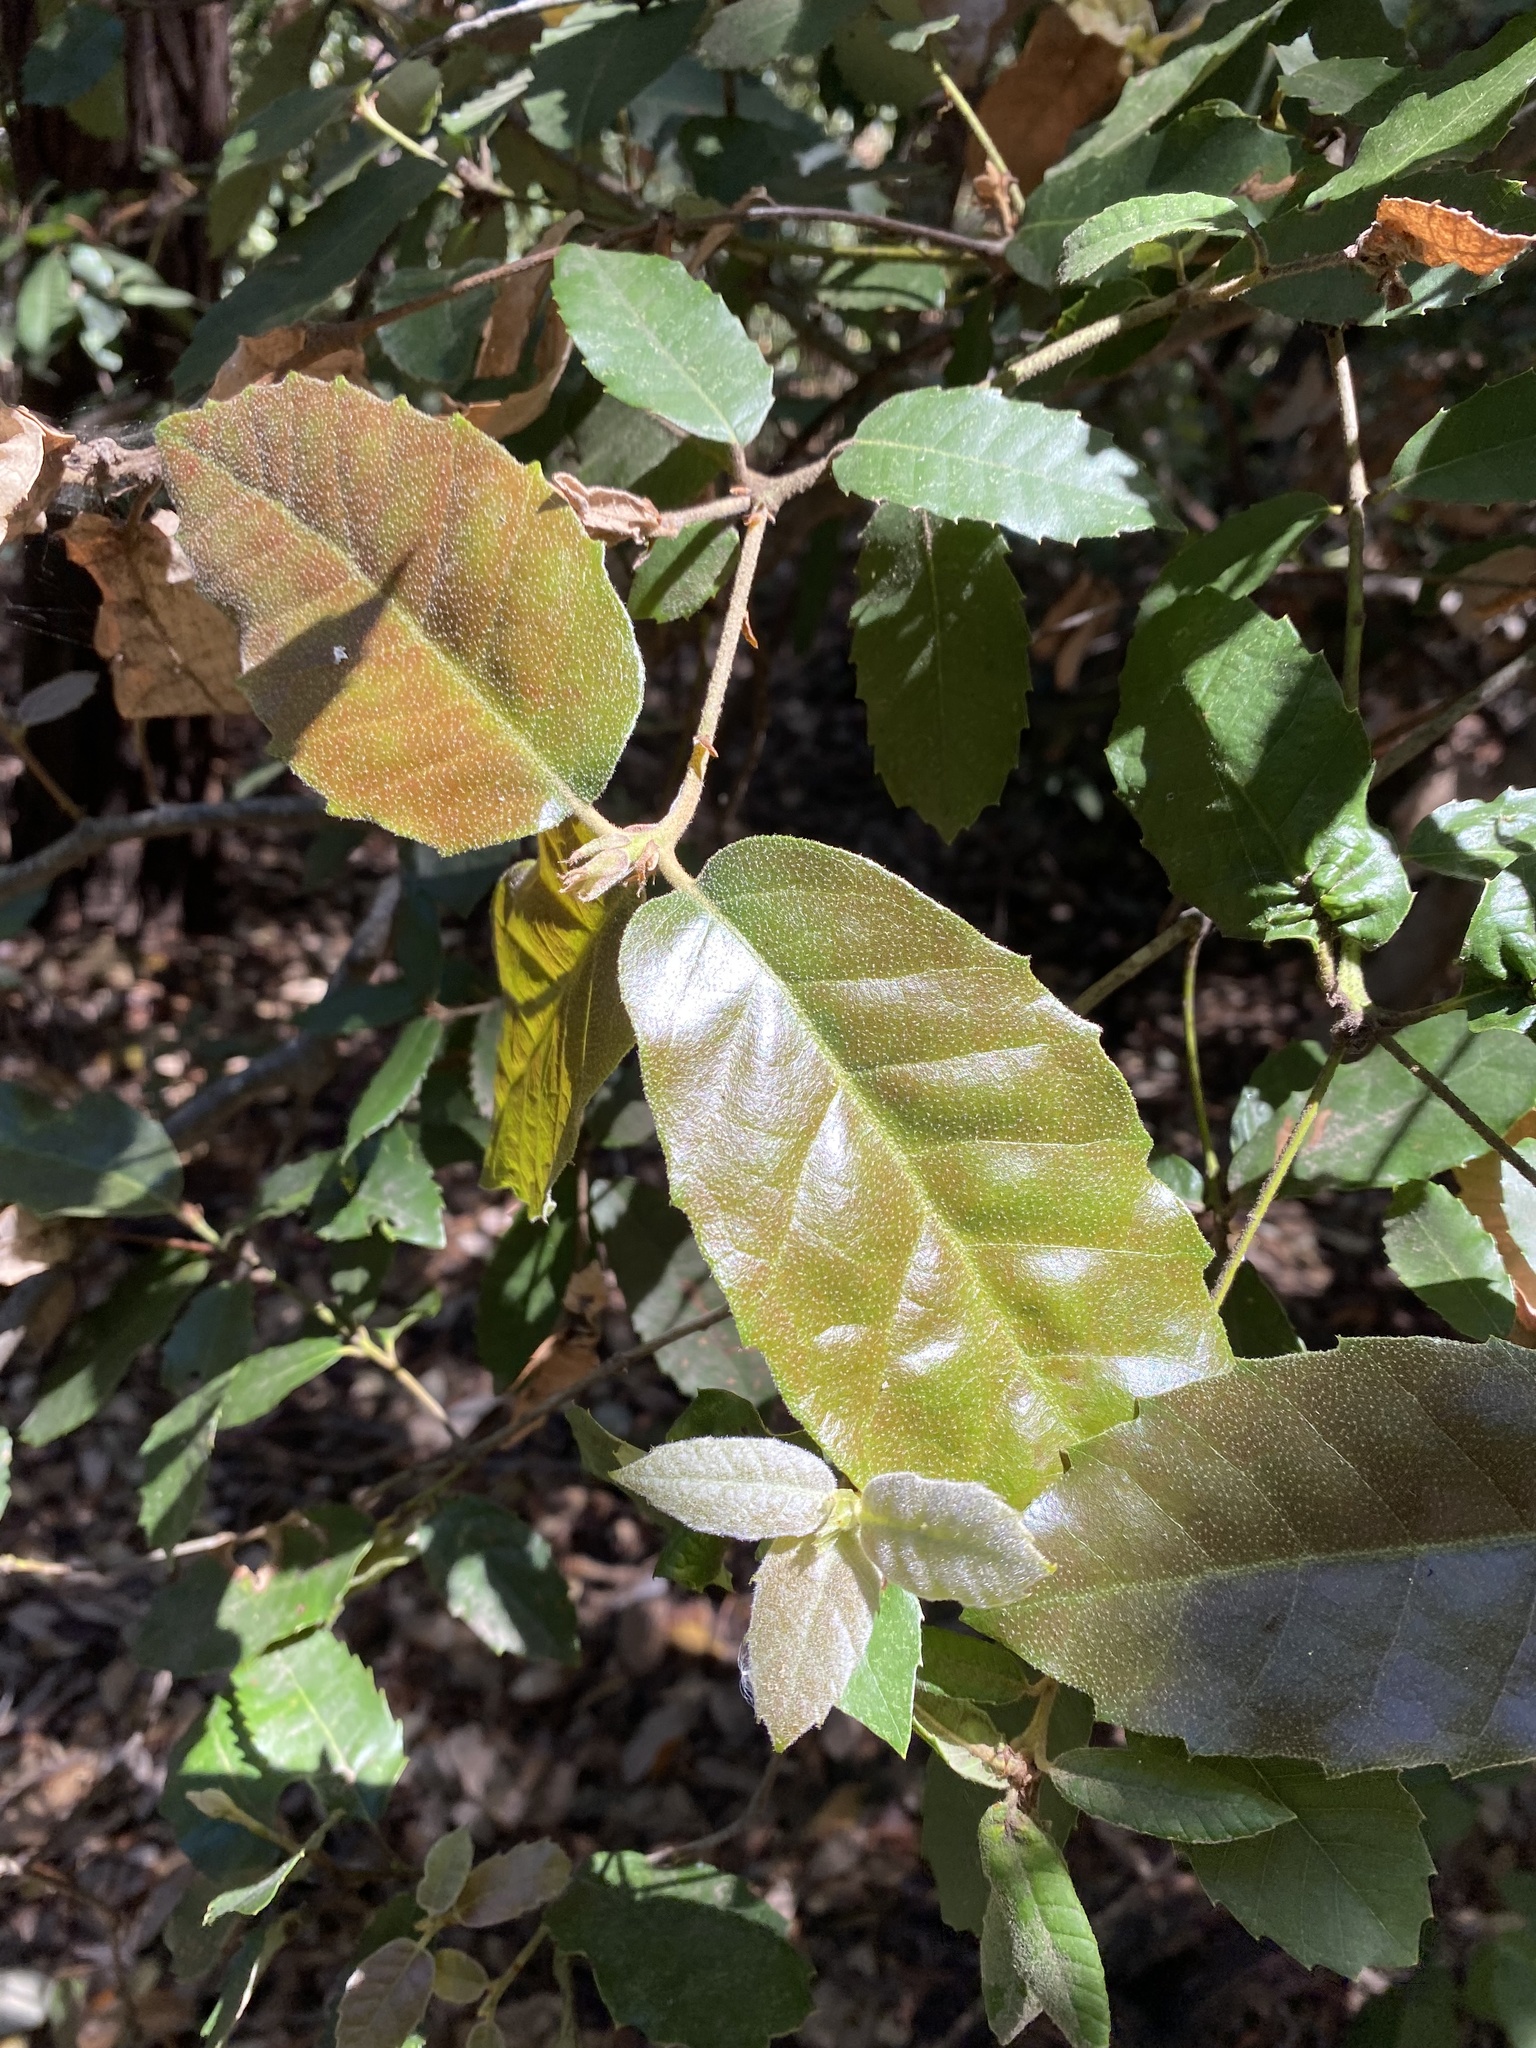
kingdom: Plantae
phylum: Tracheophyta
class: Magnoliopsida
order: Fagales
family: Fagaceae
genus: Notholithocarpus
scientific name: Notholithocarpus densiflorus
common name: Tan bark oak
